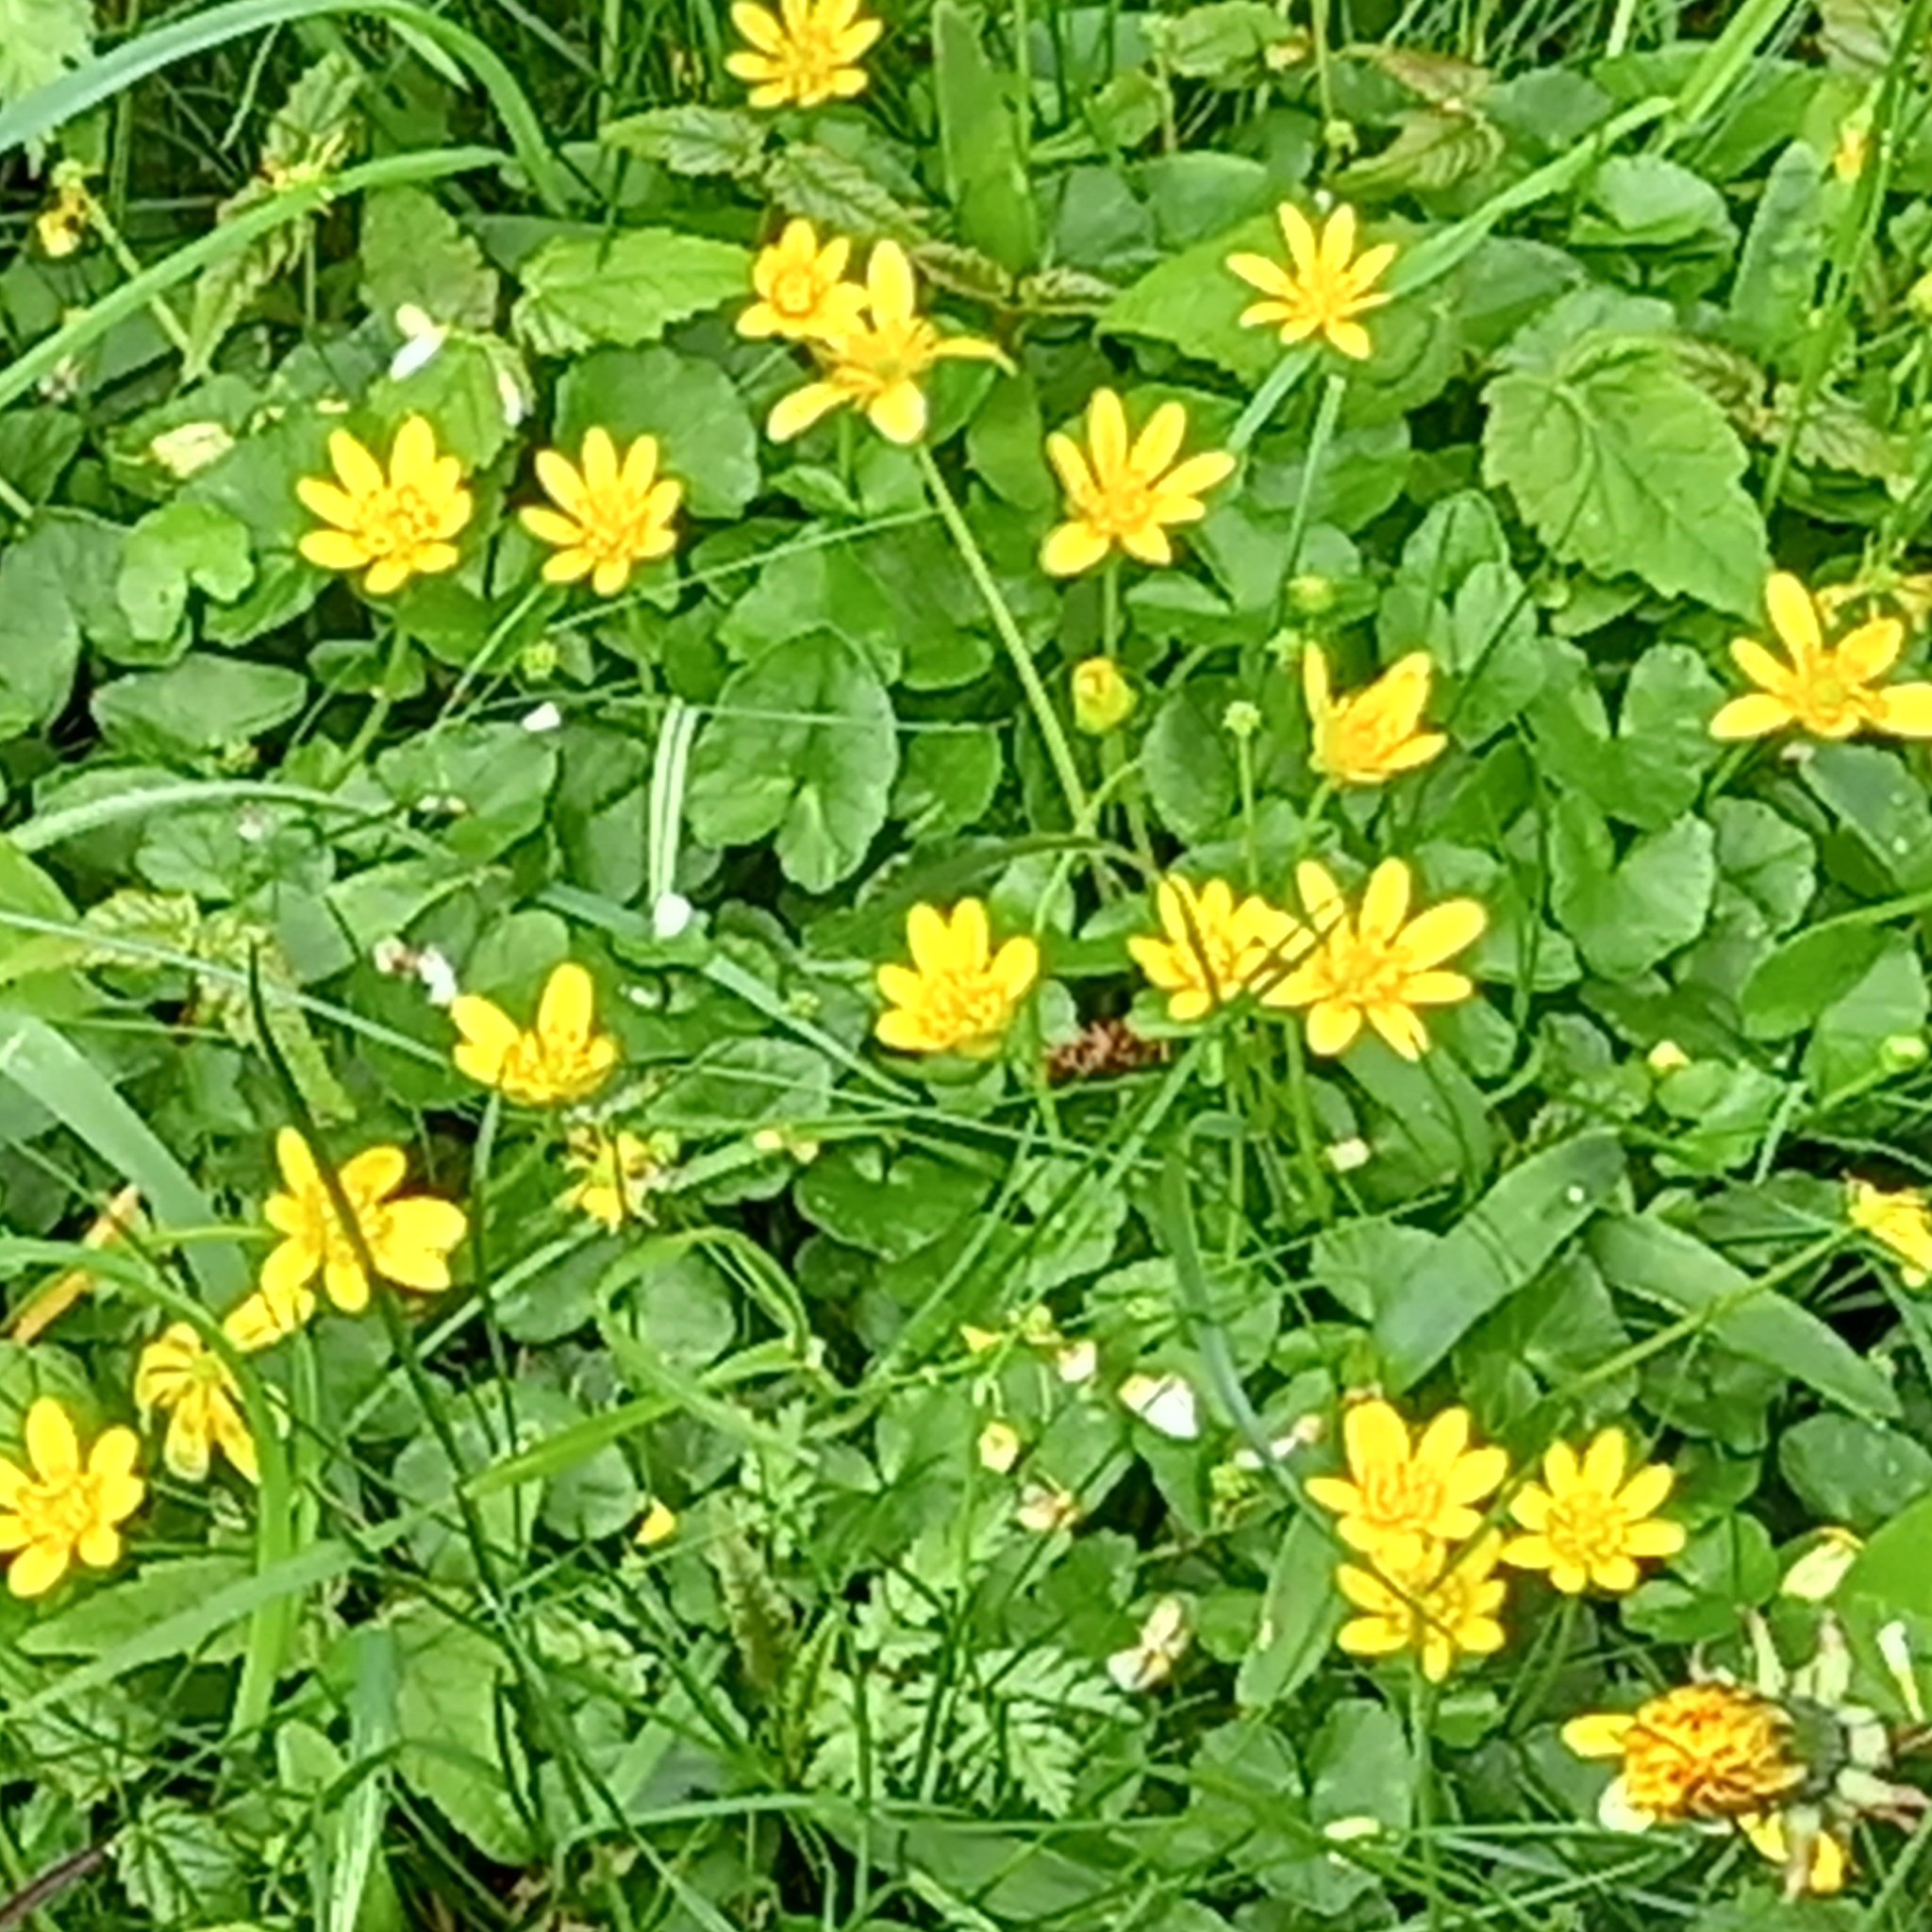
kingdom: Plantae
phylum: Tracheophyta
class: Magnoliopsida
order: Ranunculales
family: Ranunculaceae
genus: Ficaria
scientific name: Ficaria verna
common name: Lesser celandine
